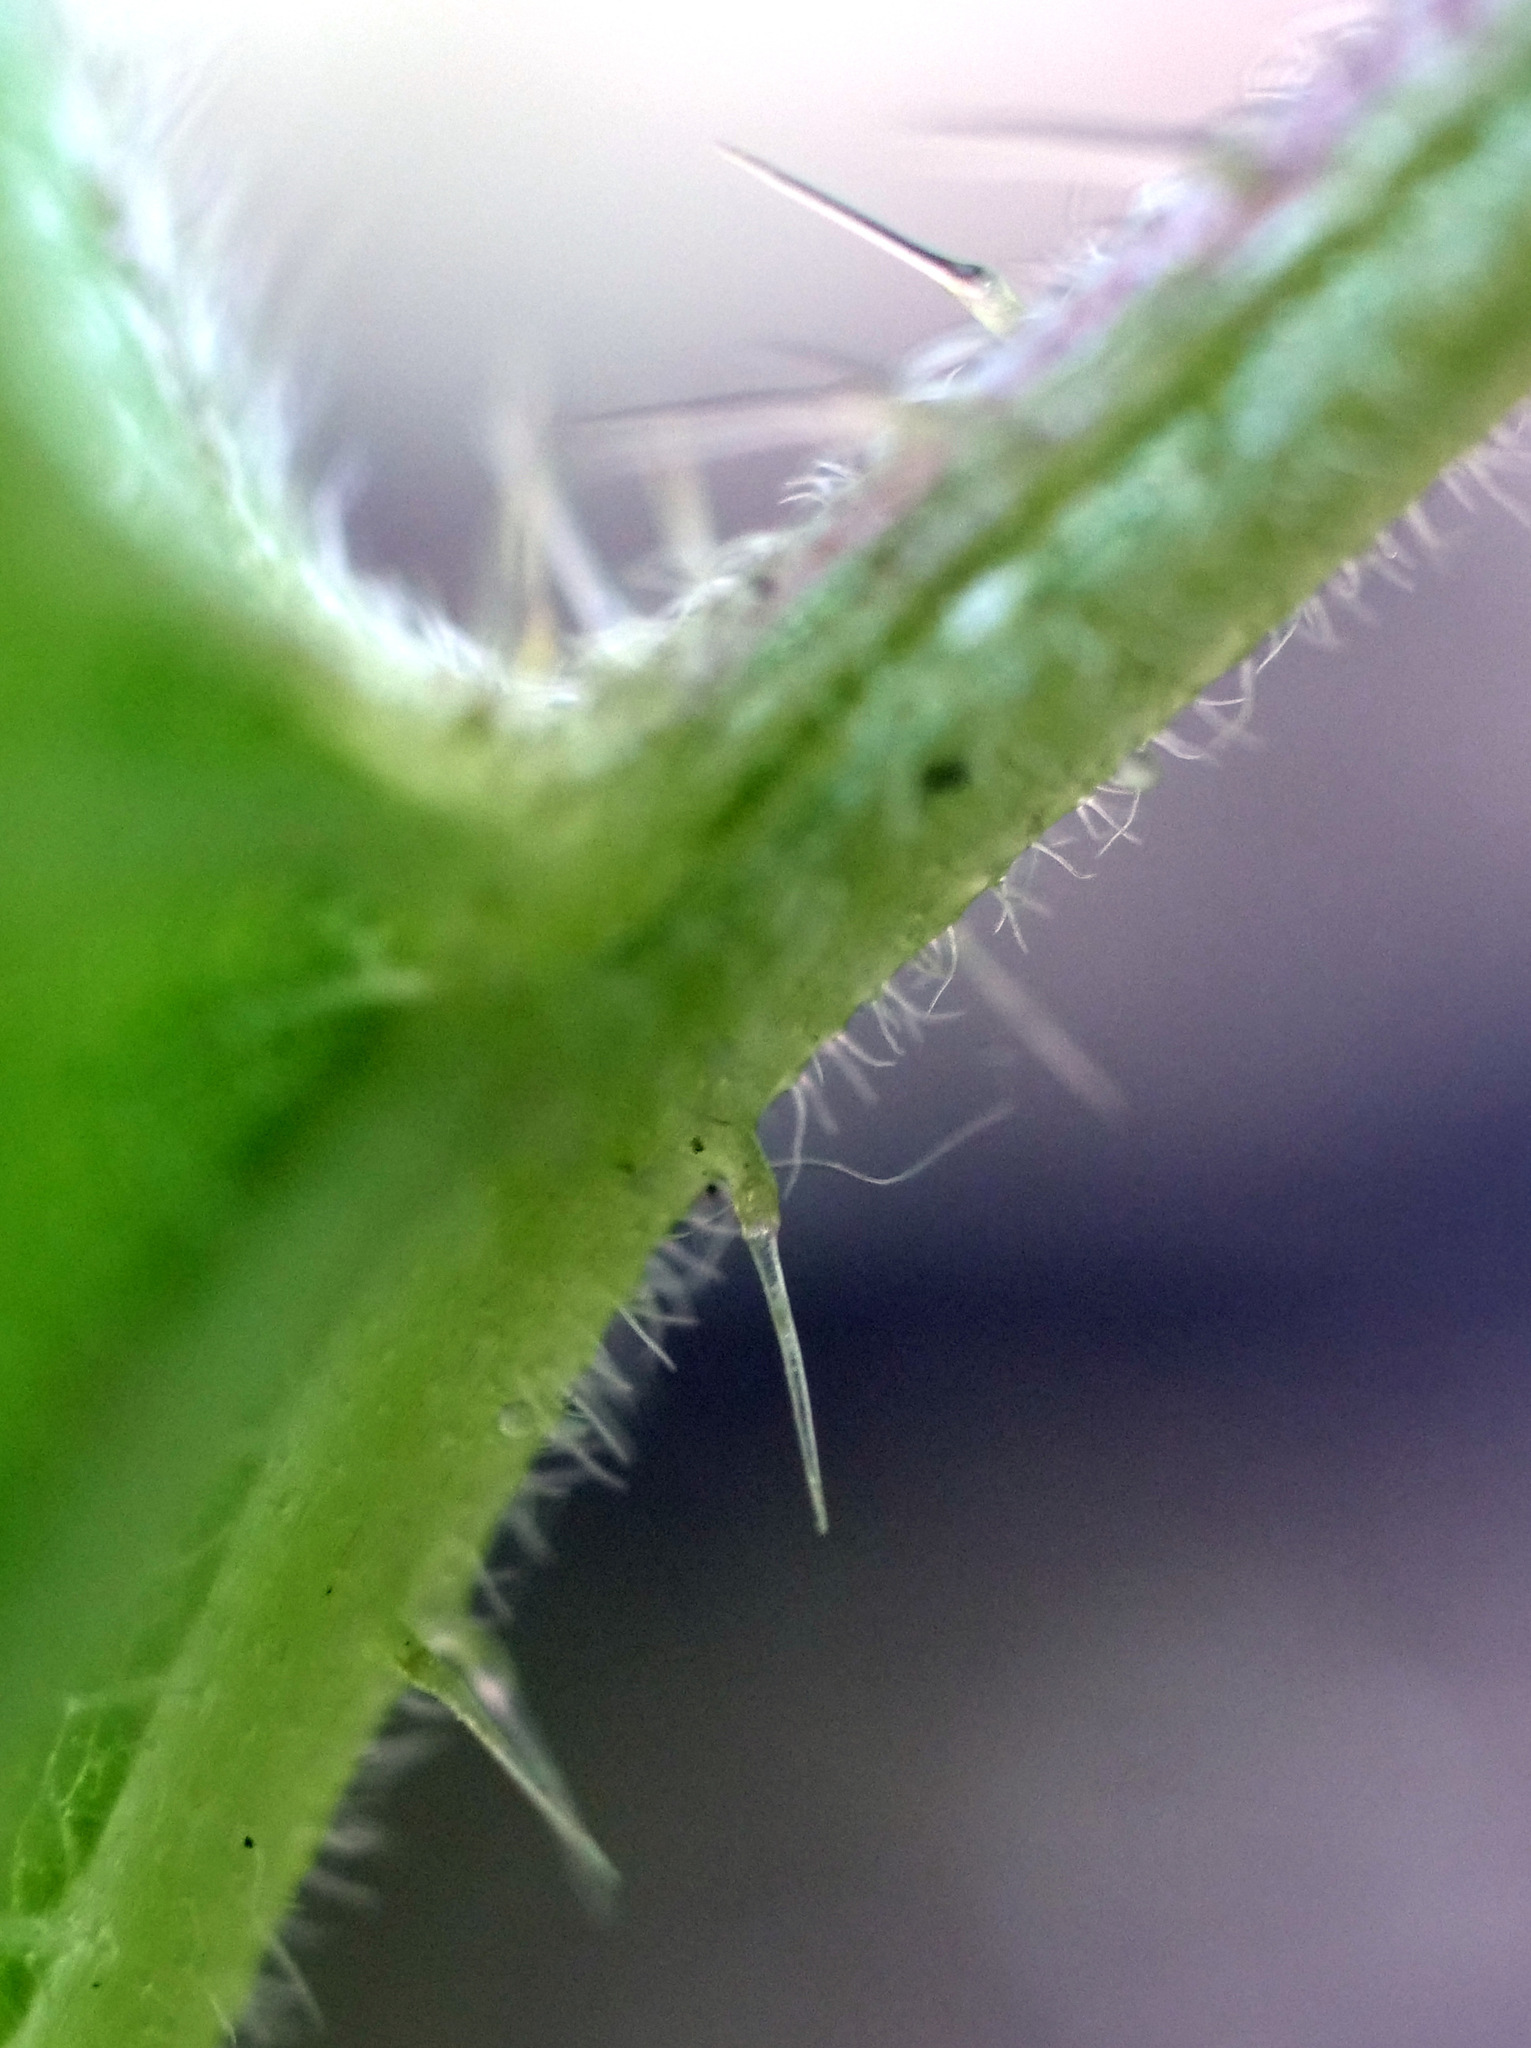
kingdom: Plantae
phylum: Tracheophyta
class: Magnoliopsida
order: Rosales
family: Urticaceae
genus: Urtica
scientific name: Urtica dioica
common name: Common nettle
